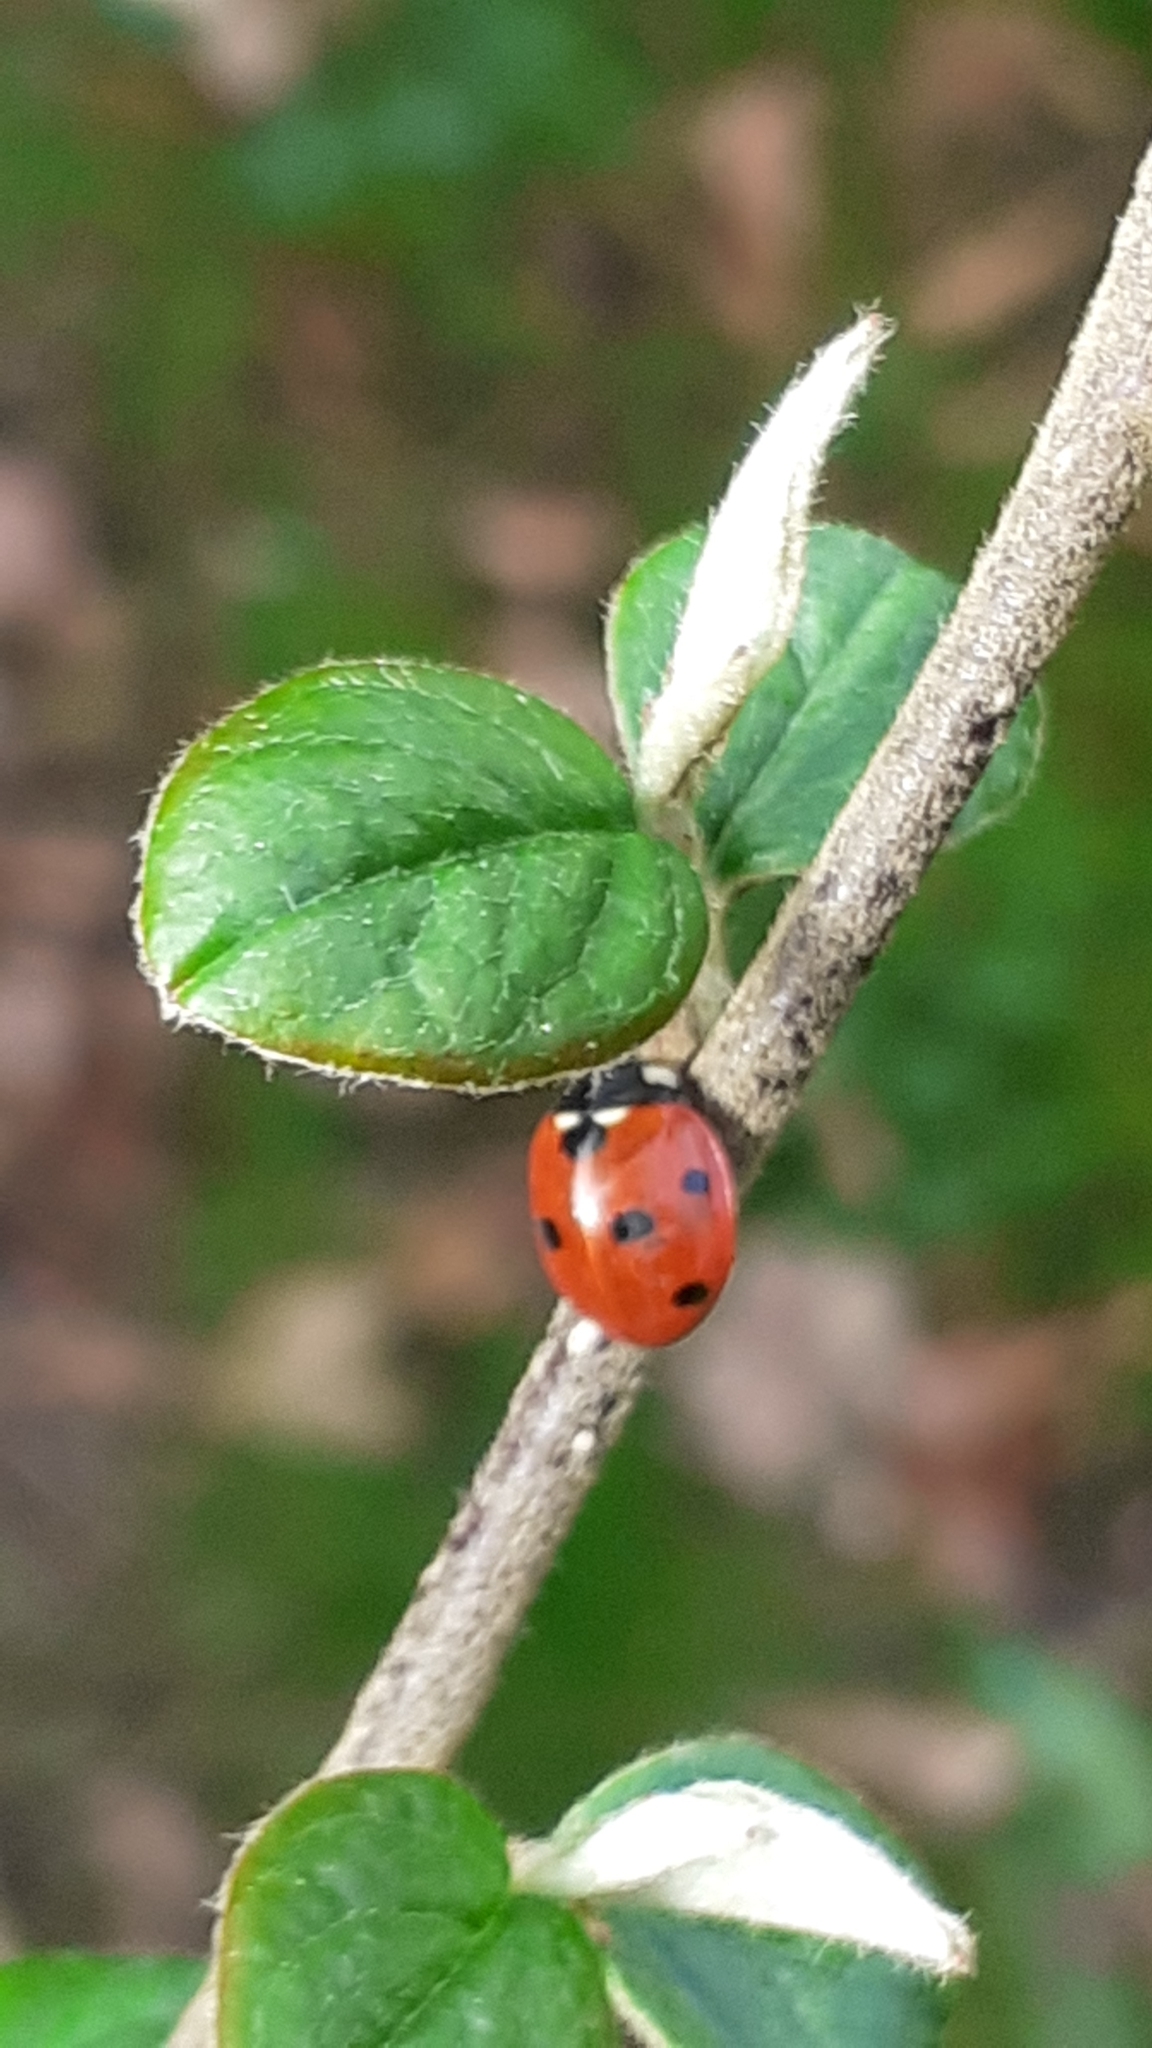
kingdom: Animalia
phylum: Arthropoda
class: Insecta
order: Coleoptera
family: Coccinellidae
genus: Coccinella
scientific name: Coccinella septempunctata
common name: Sevenspotted lady beetle
